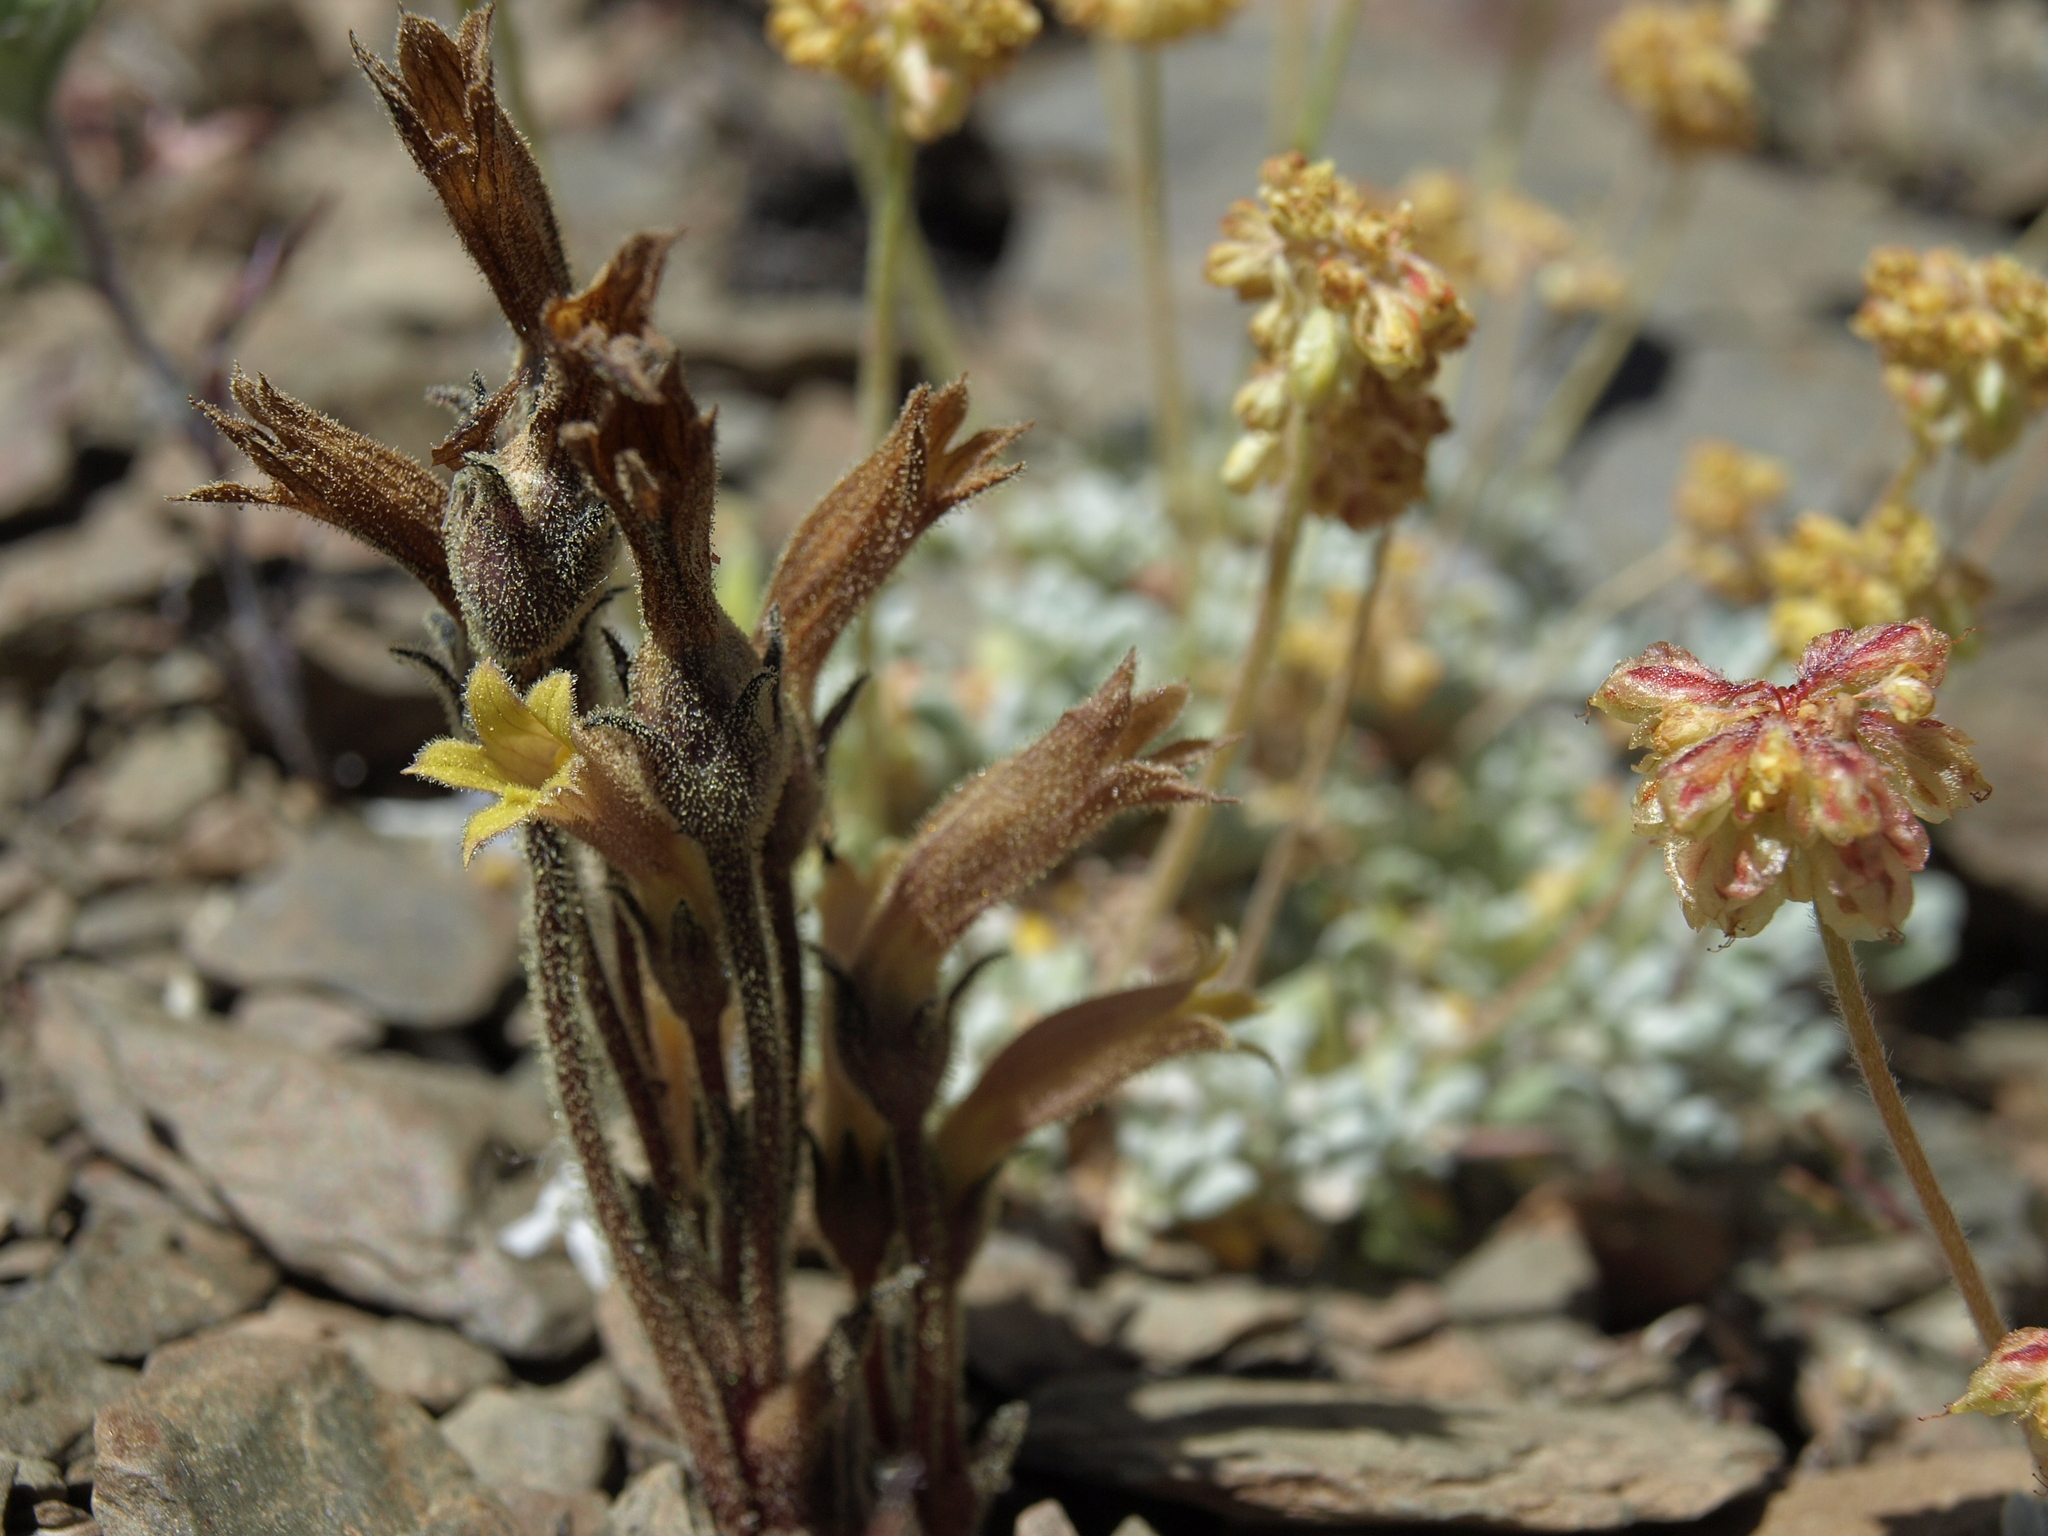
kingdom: Plantae
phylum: Tracheophyta
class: Magnoliopsida
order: Lamiales
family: Orobanchaceae
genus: Aphyllon
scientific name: Aphyllon franciscanum
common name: San francisco broomrape
